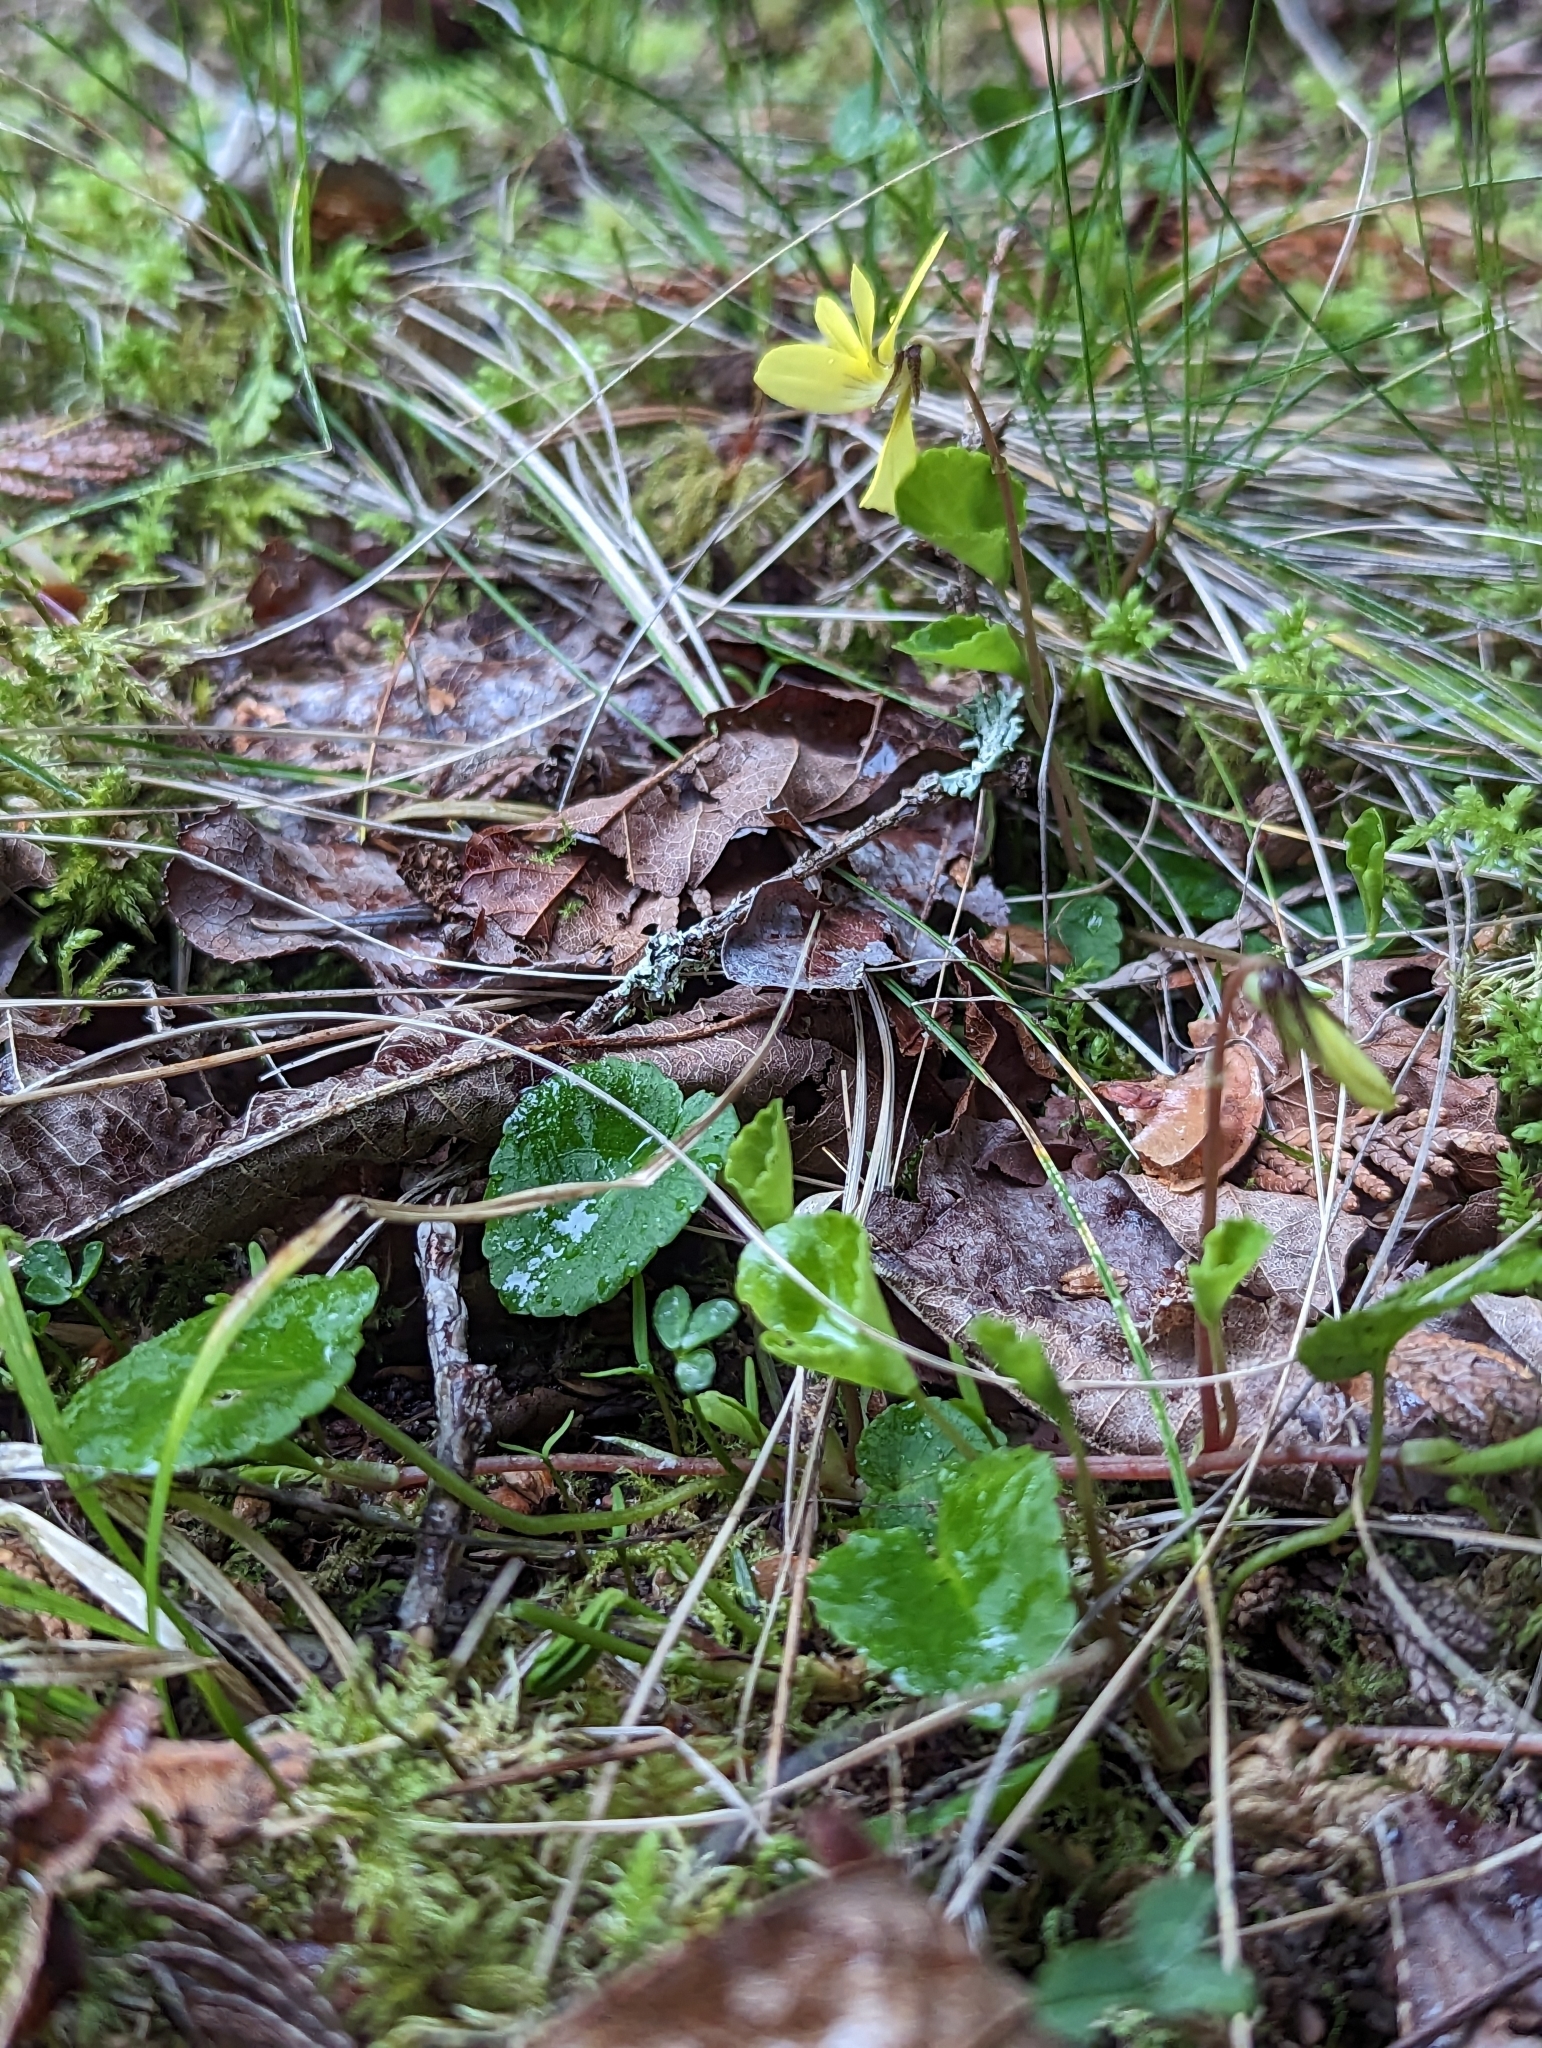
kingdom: Plantae
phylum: Tracheophyta
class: Magnoliopsida
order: Malpighiales
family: Violaceae
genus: Viola
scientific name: Viola sempervirens
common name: Evergreen violet
